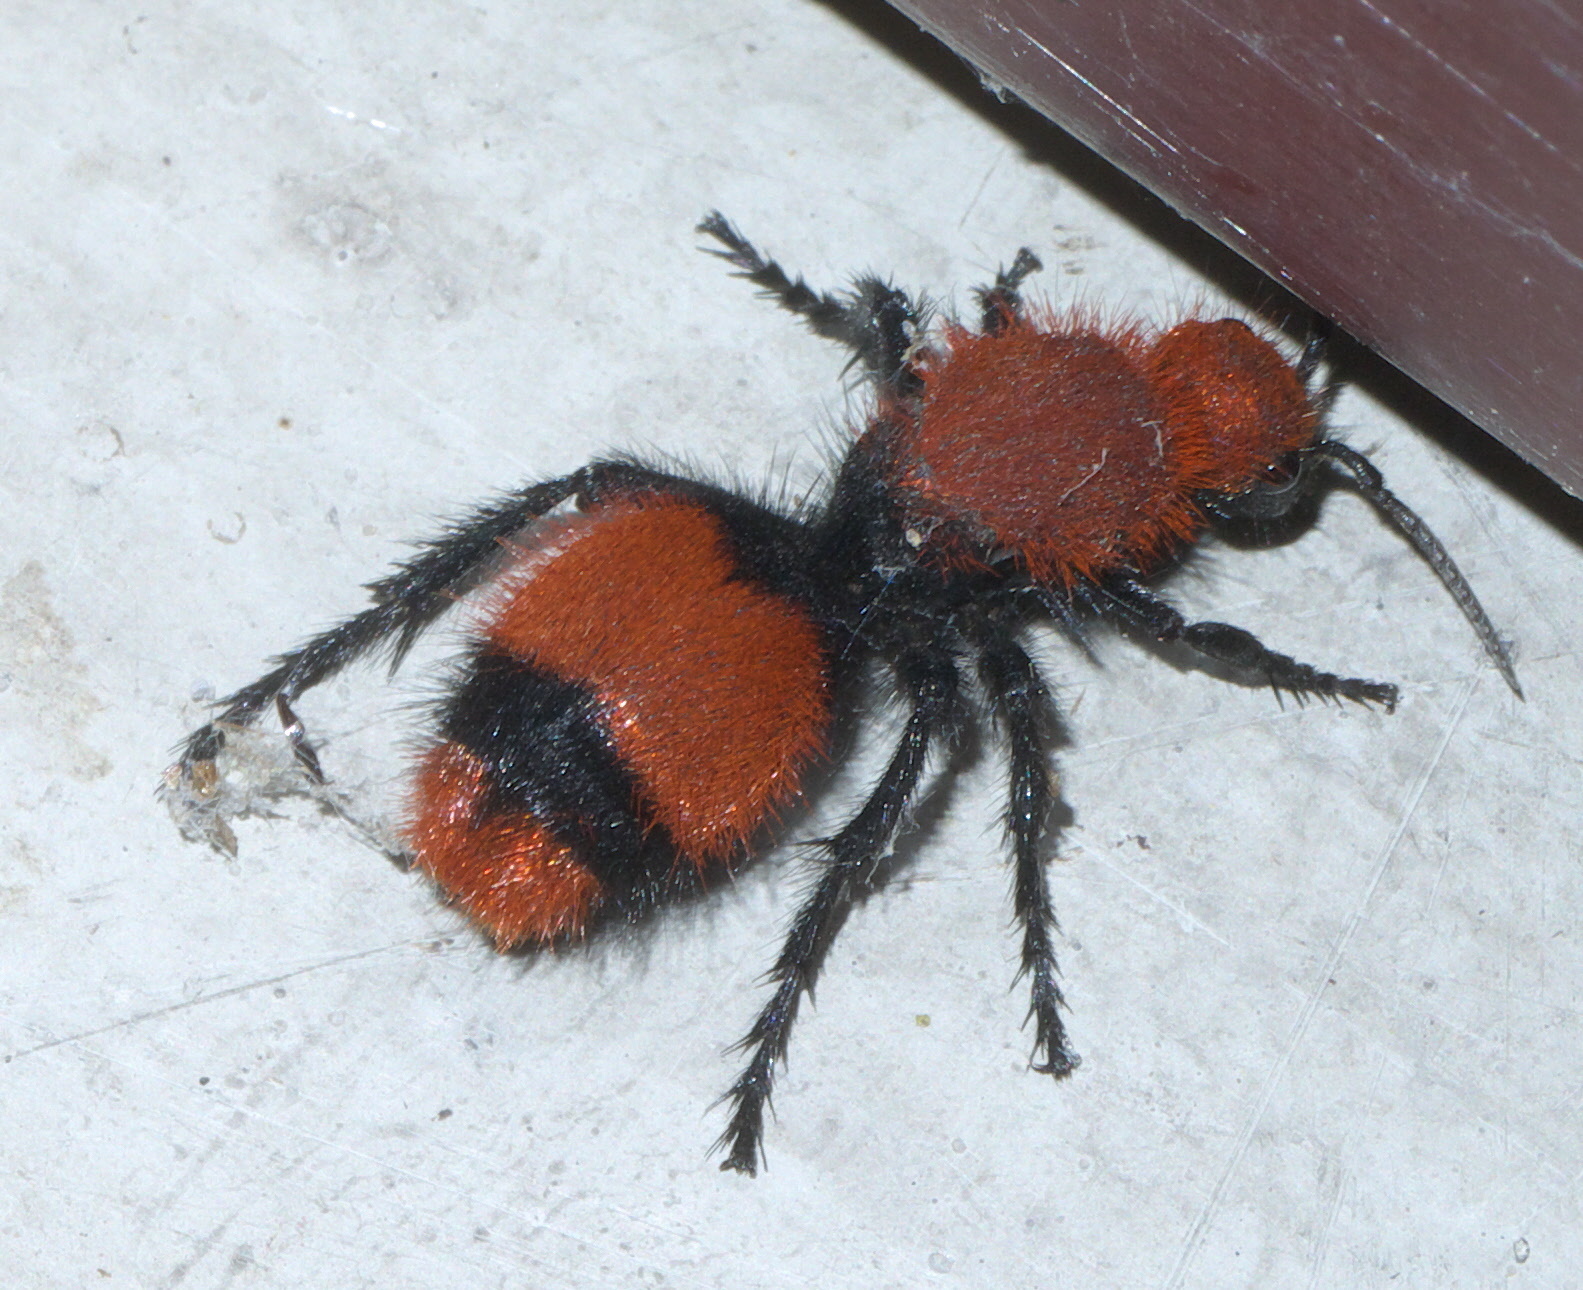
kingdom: Animalia
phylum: Arthropoda
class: Insecta
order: Hymenoptera
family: Mutillidae
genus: Dasymutilla
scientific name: Dasymutilla occidentalis
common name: Common eastern velvet ant
